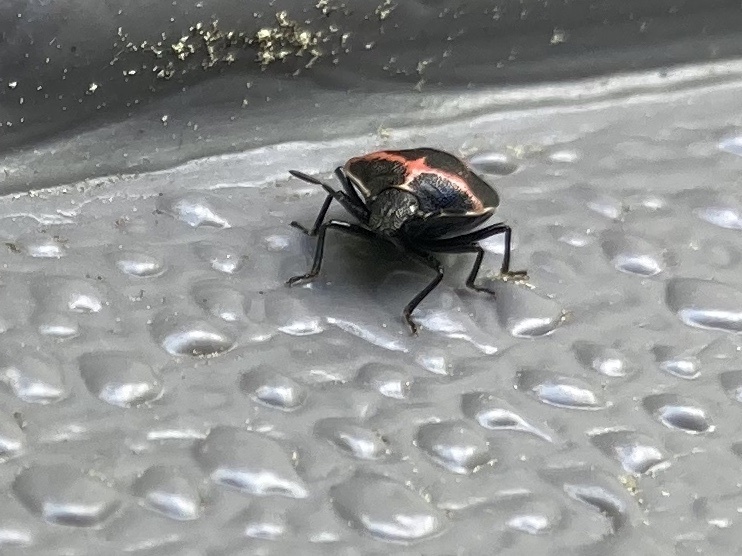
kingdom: Animalia
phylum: Arthropoda
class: Insecta
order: Hemiptera
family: Pentatomidae
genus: Cosmopepla
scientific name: Cosmopepla lintneriana
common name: Twice-stabbed stink bug
